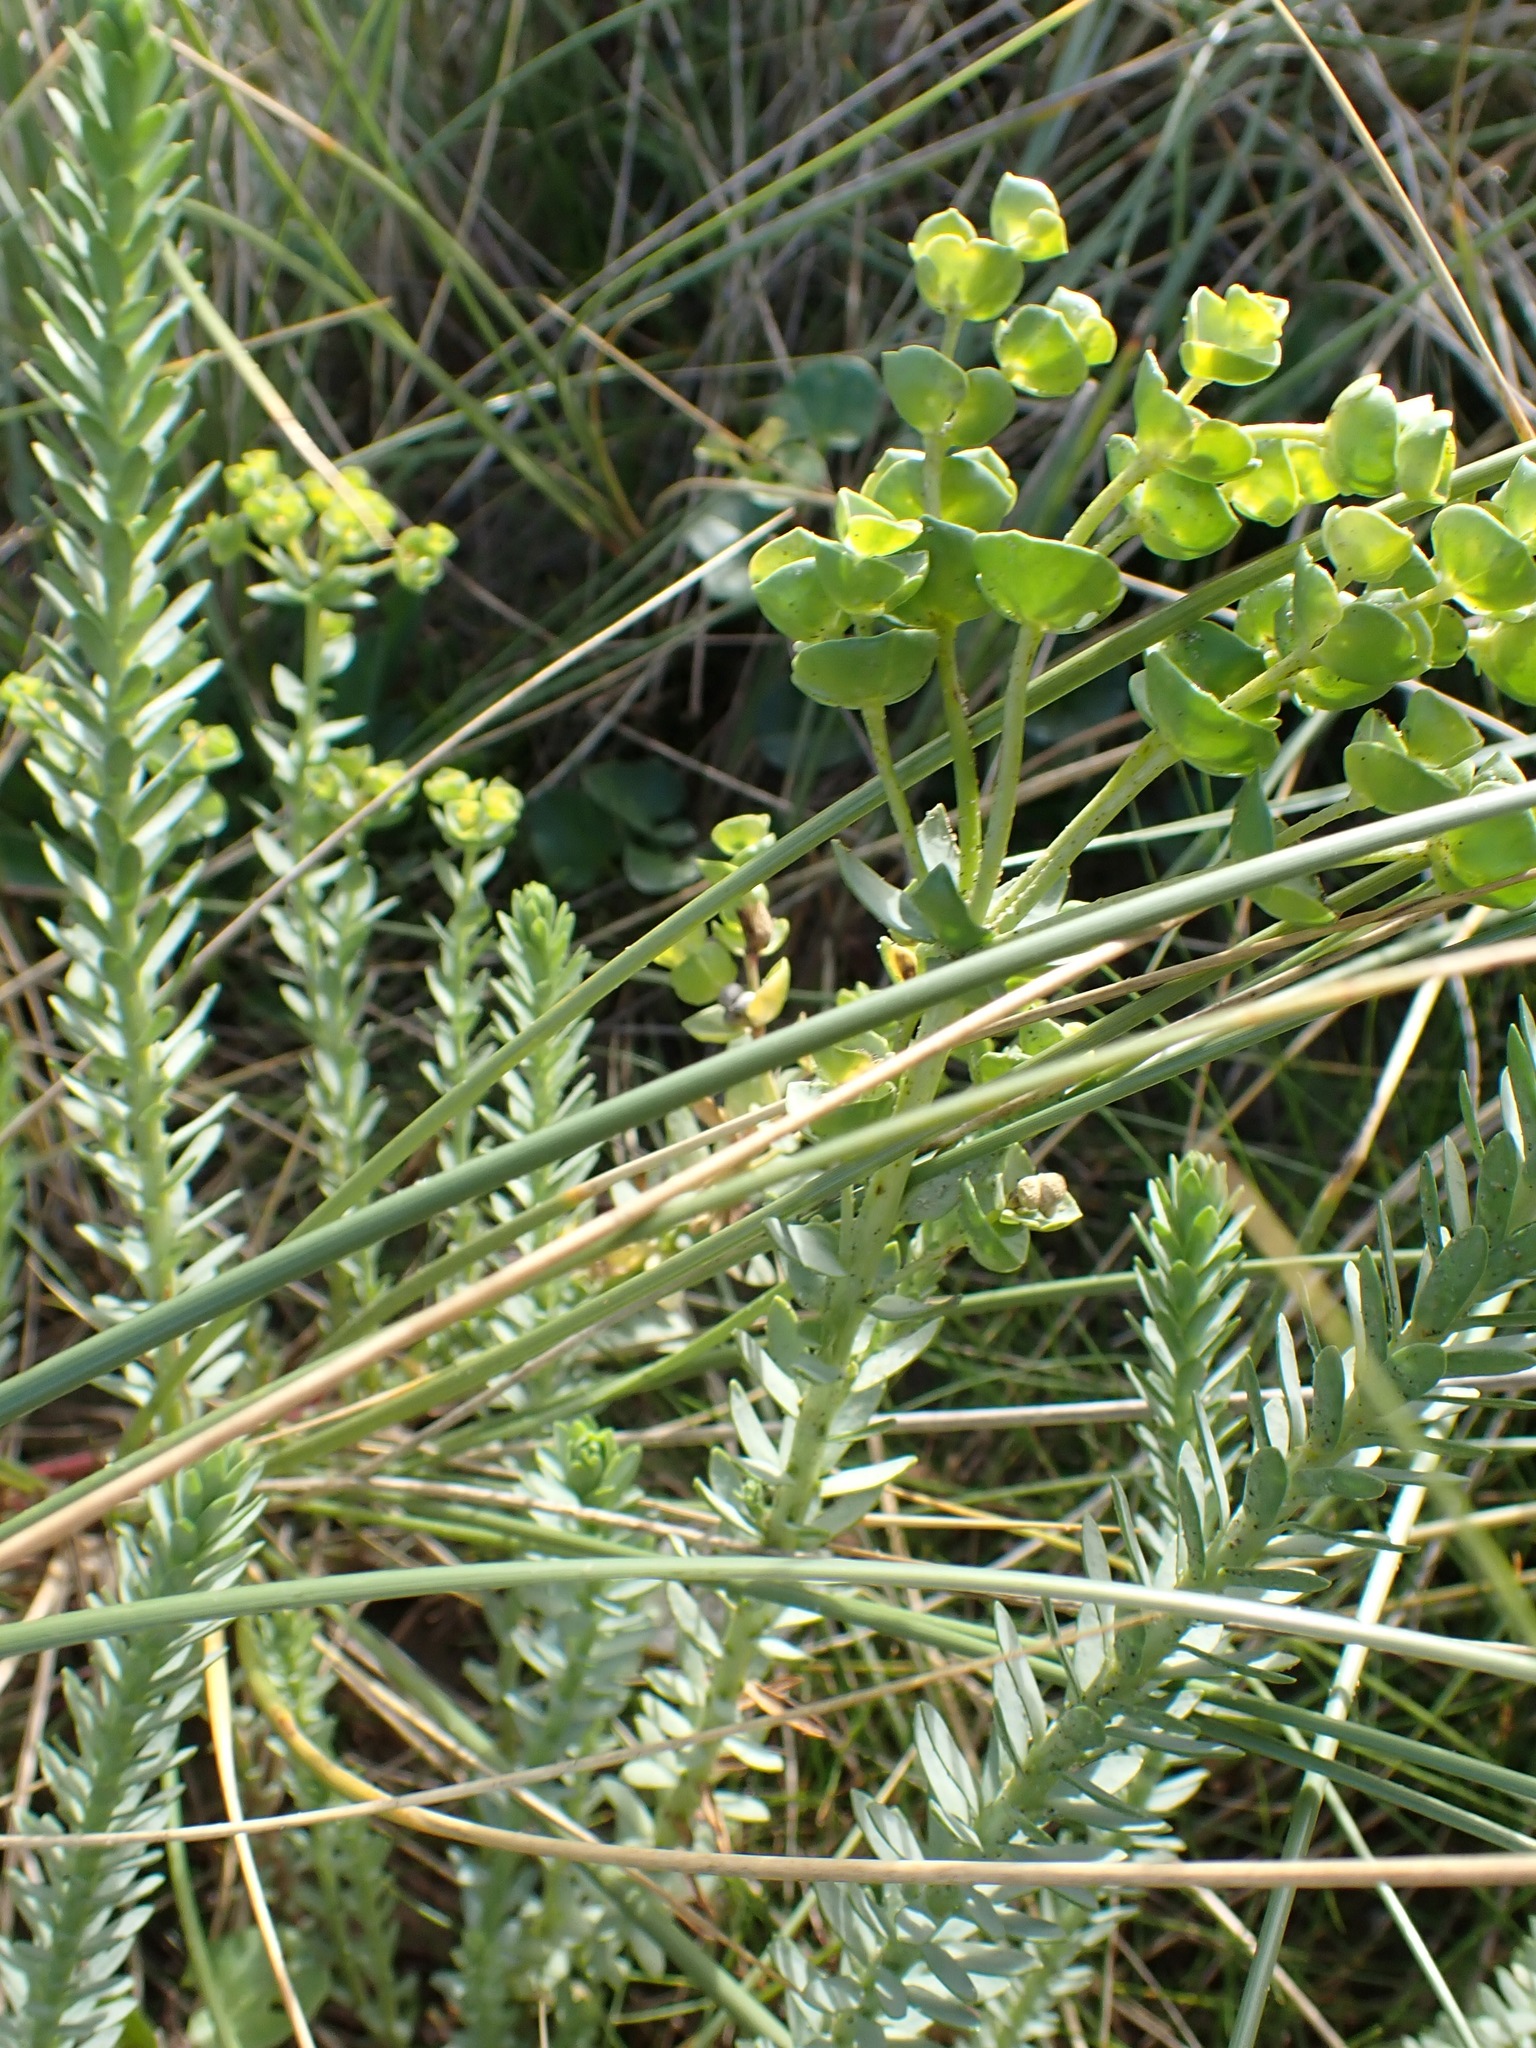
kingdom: Plantae
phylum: Tracheophyta
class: Magnoliopsida
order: Malpighiales
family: Euphorbiaceae
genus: Euphorbia
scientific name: Euphorbia paralias
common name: Sea spurge
